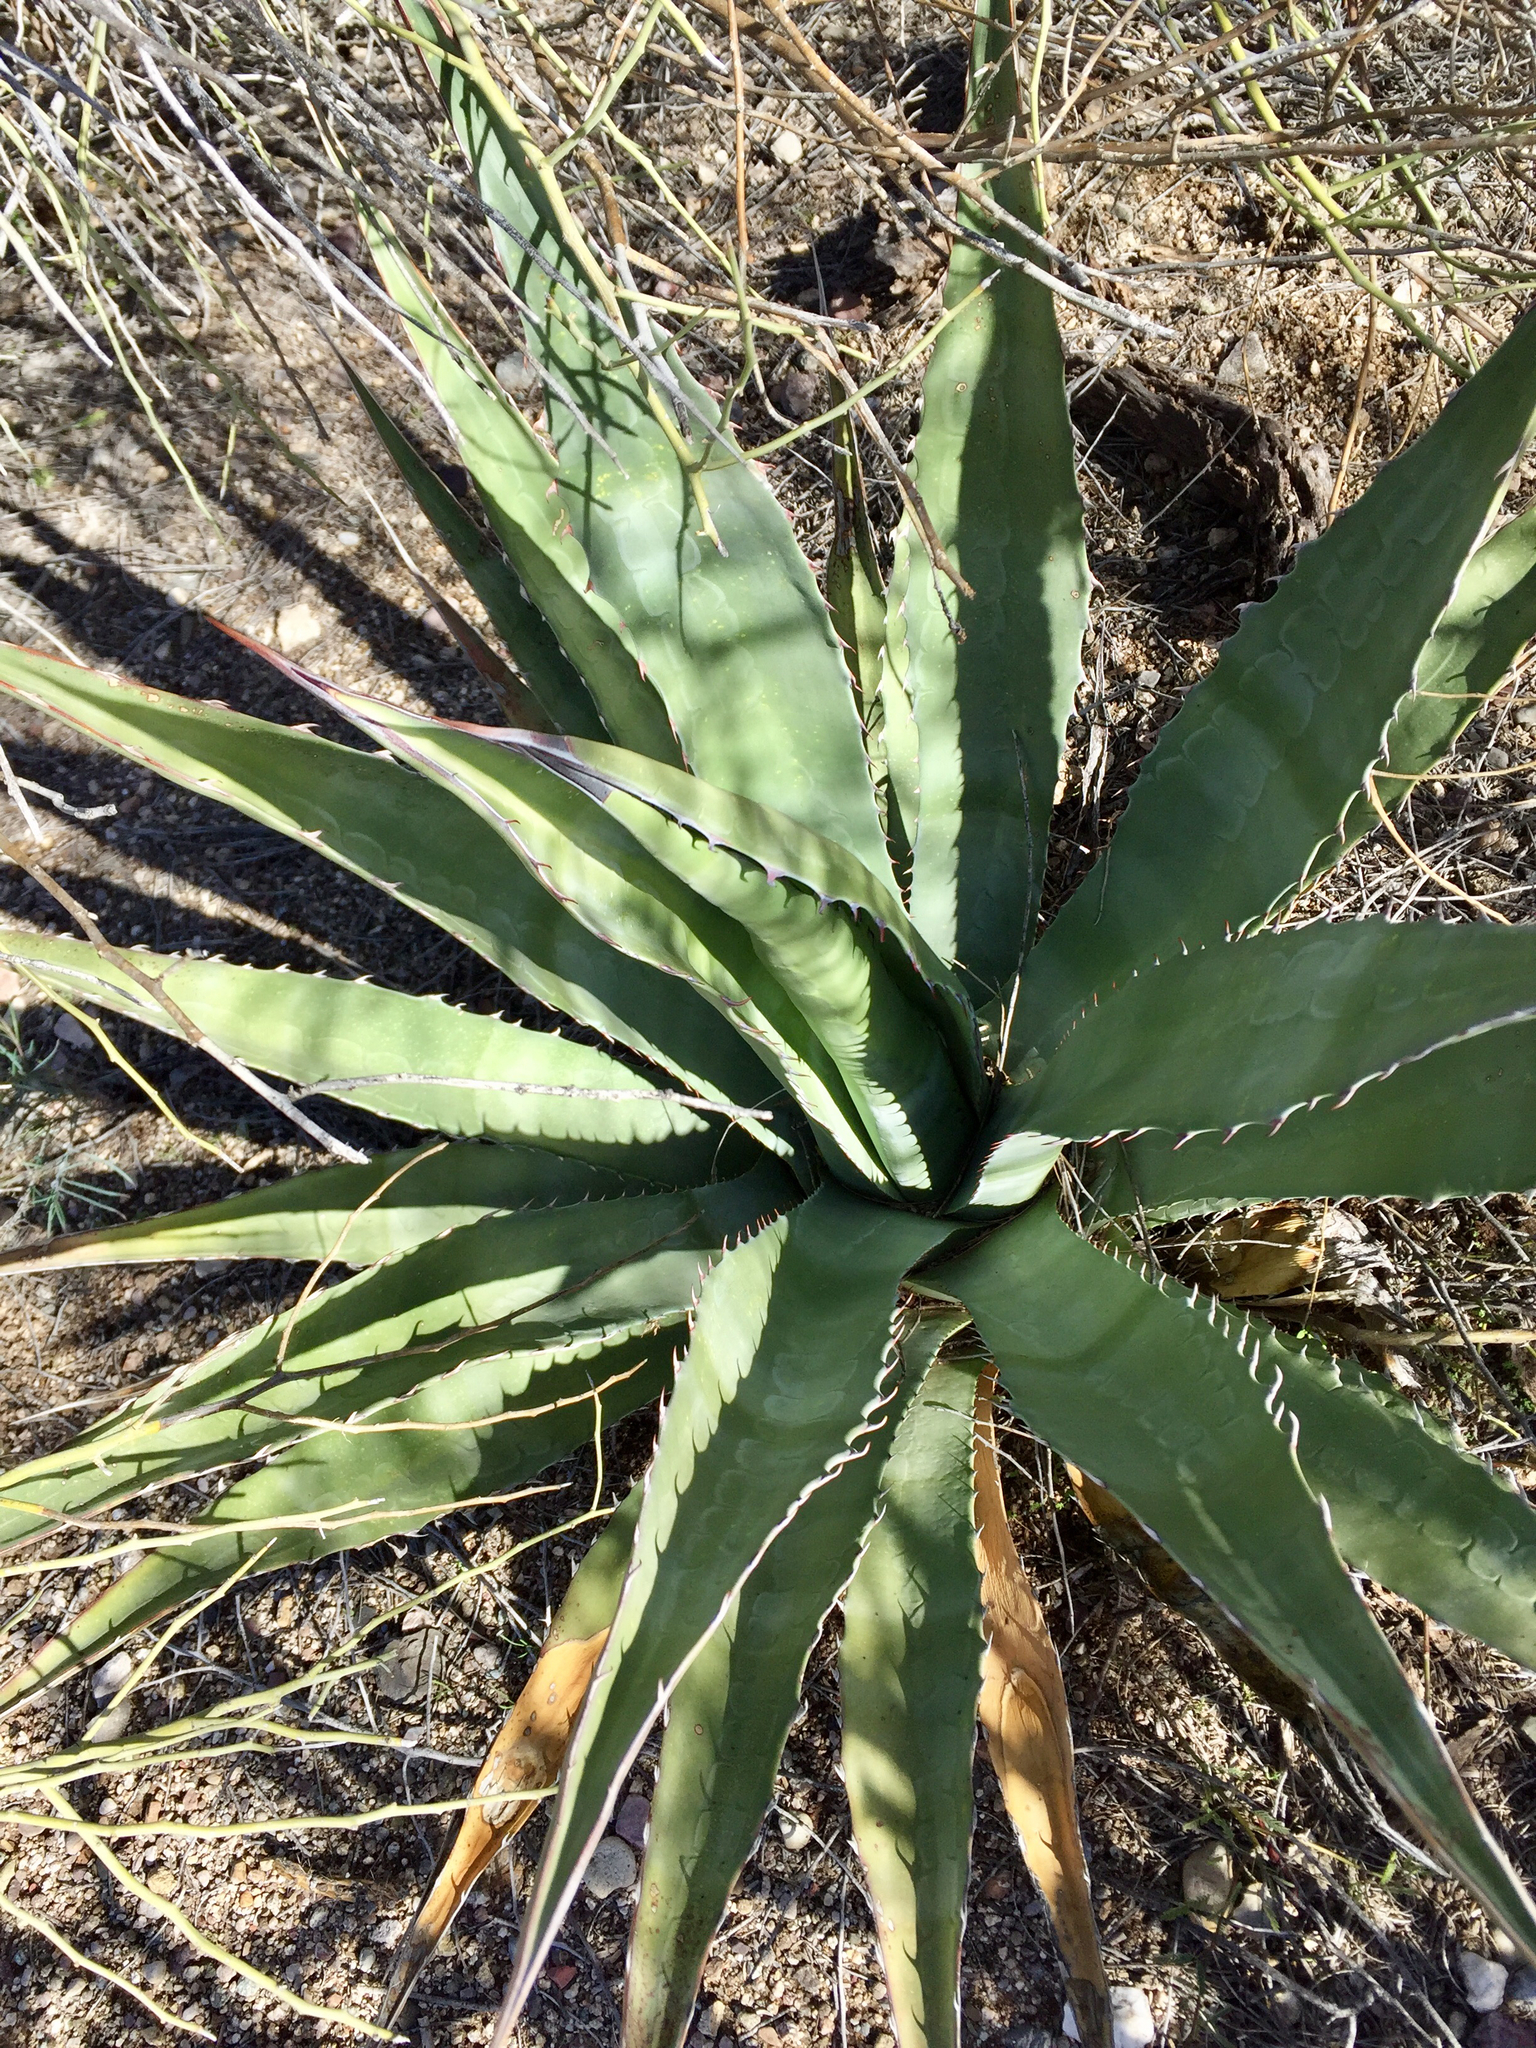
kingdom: Plantae
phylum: Tracheophyta
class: Liliopsida
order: Asparagales
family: Asparagaceae
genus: Agave
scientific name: Agave palmeri
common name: Palmer agave
